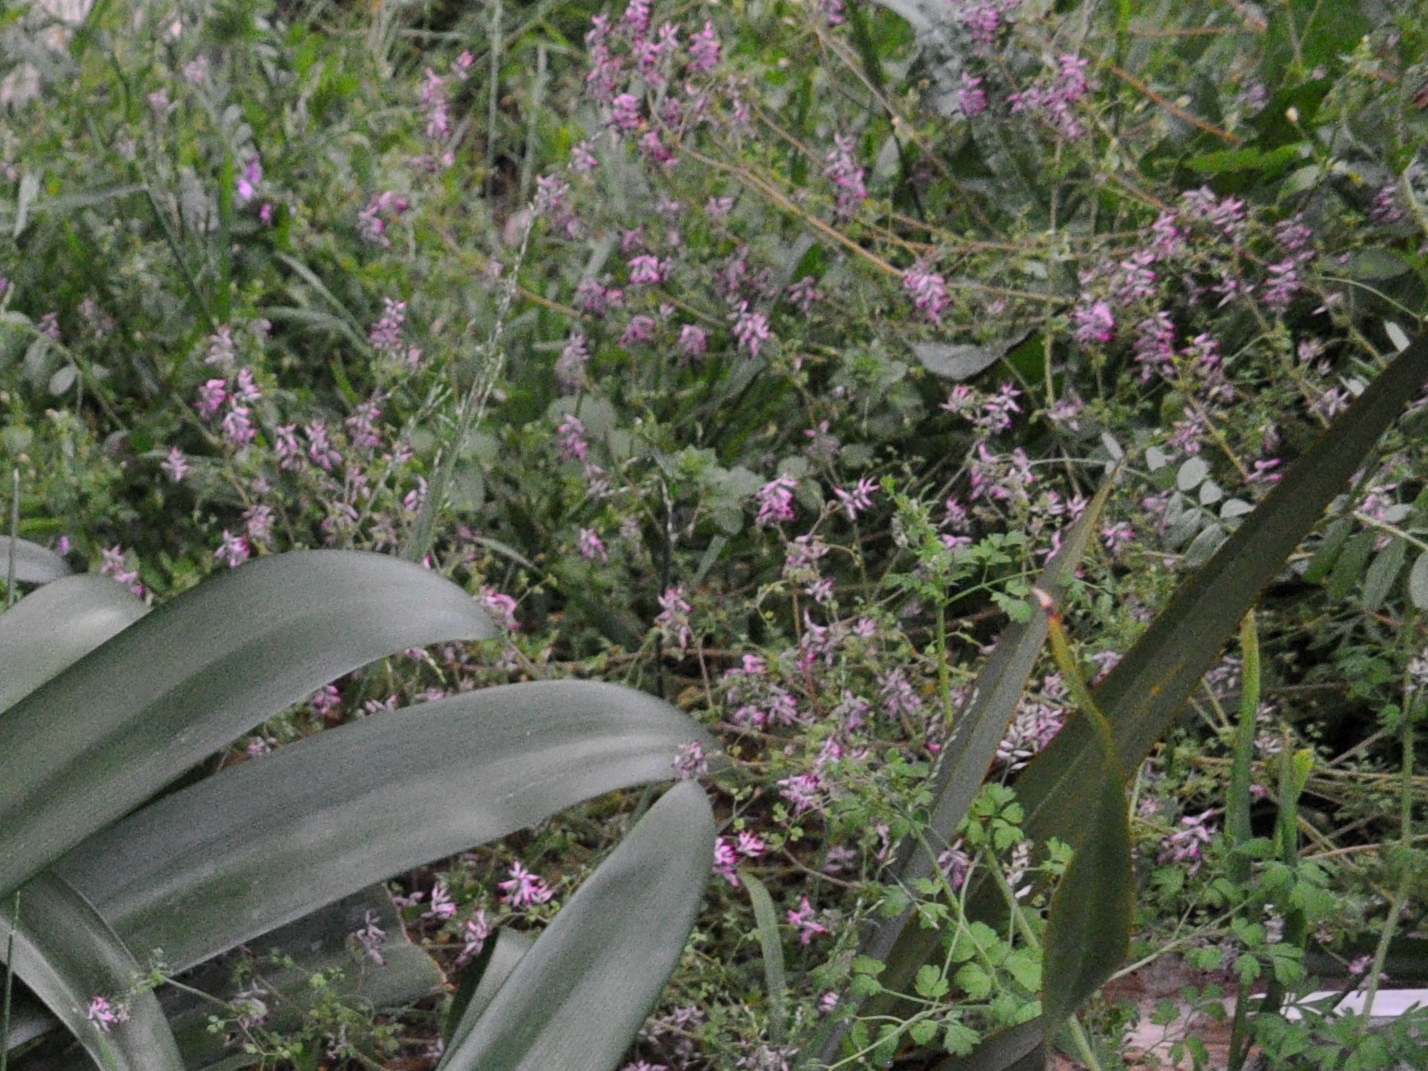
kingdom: Plantae
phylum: Tracheophyta
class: Magnoliopsida
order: Ranunculales
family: Papaveraceae
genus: Fumaria
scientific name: Fumaria muralis
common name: Common ramping-fumitory
